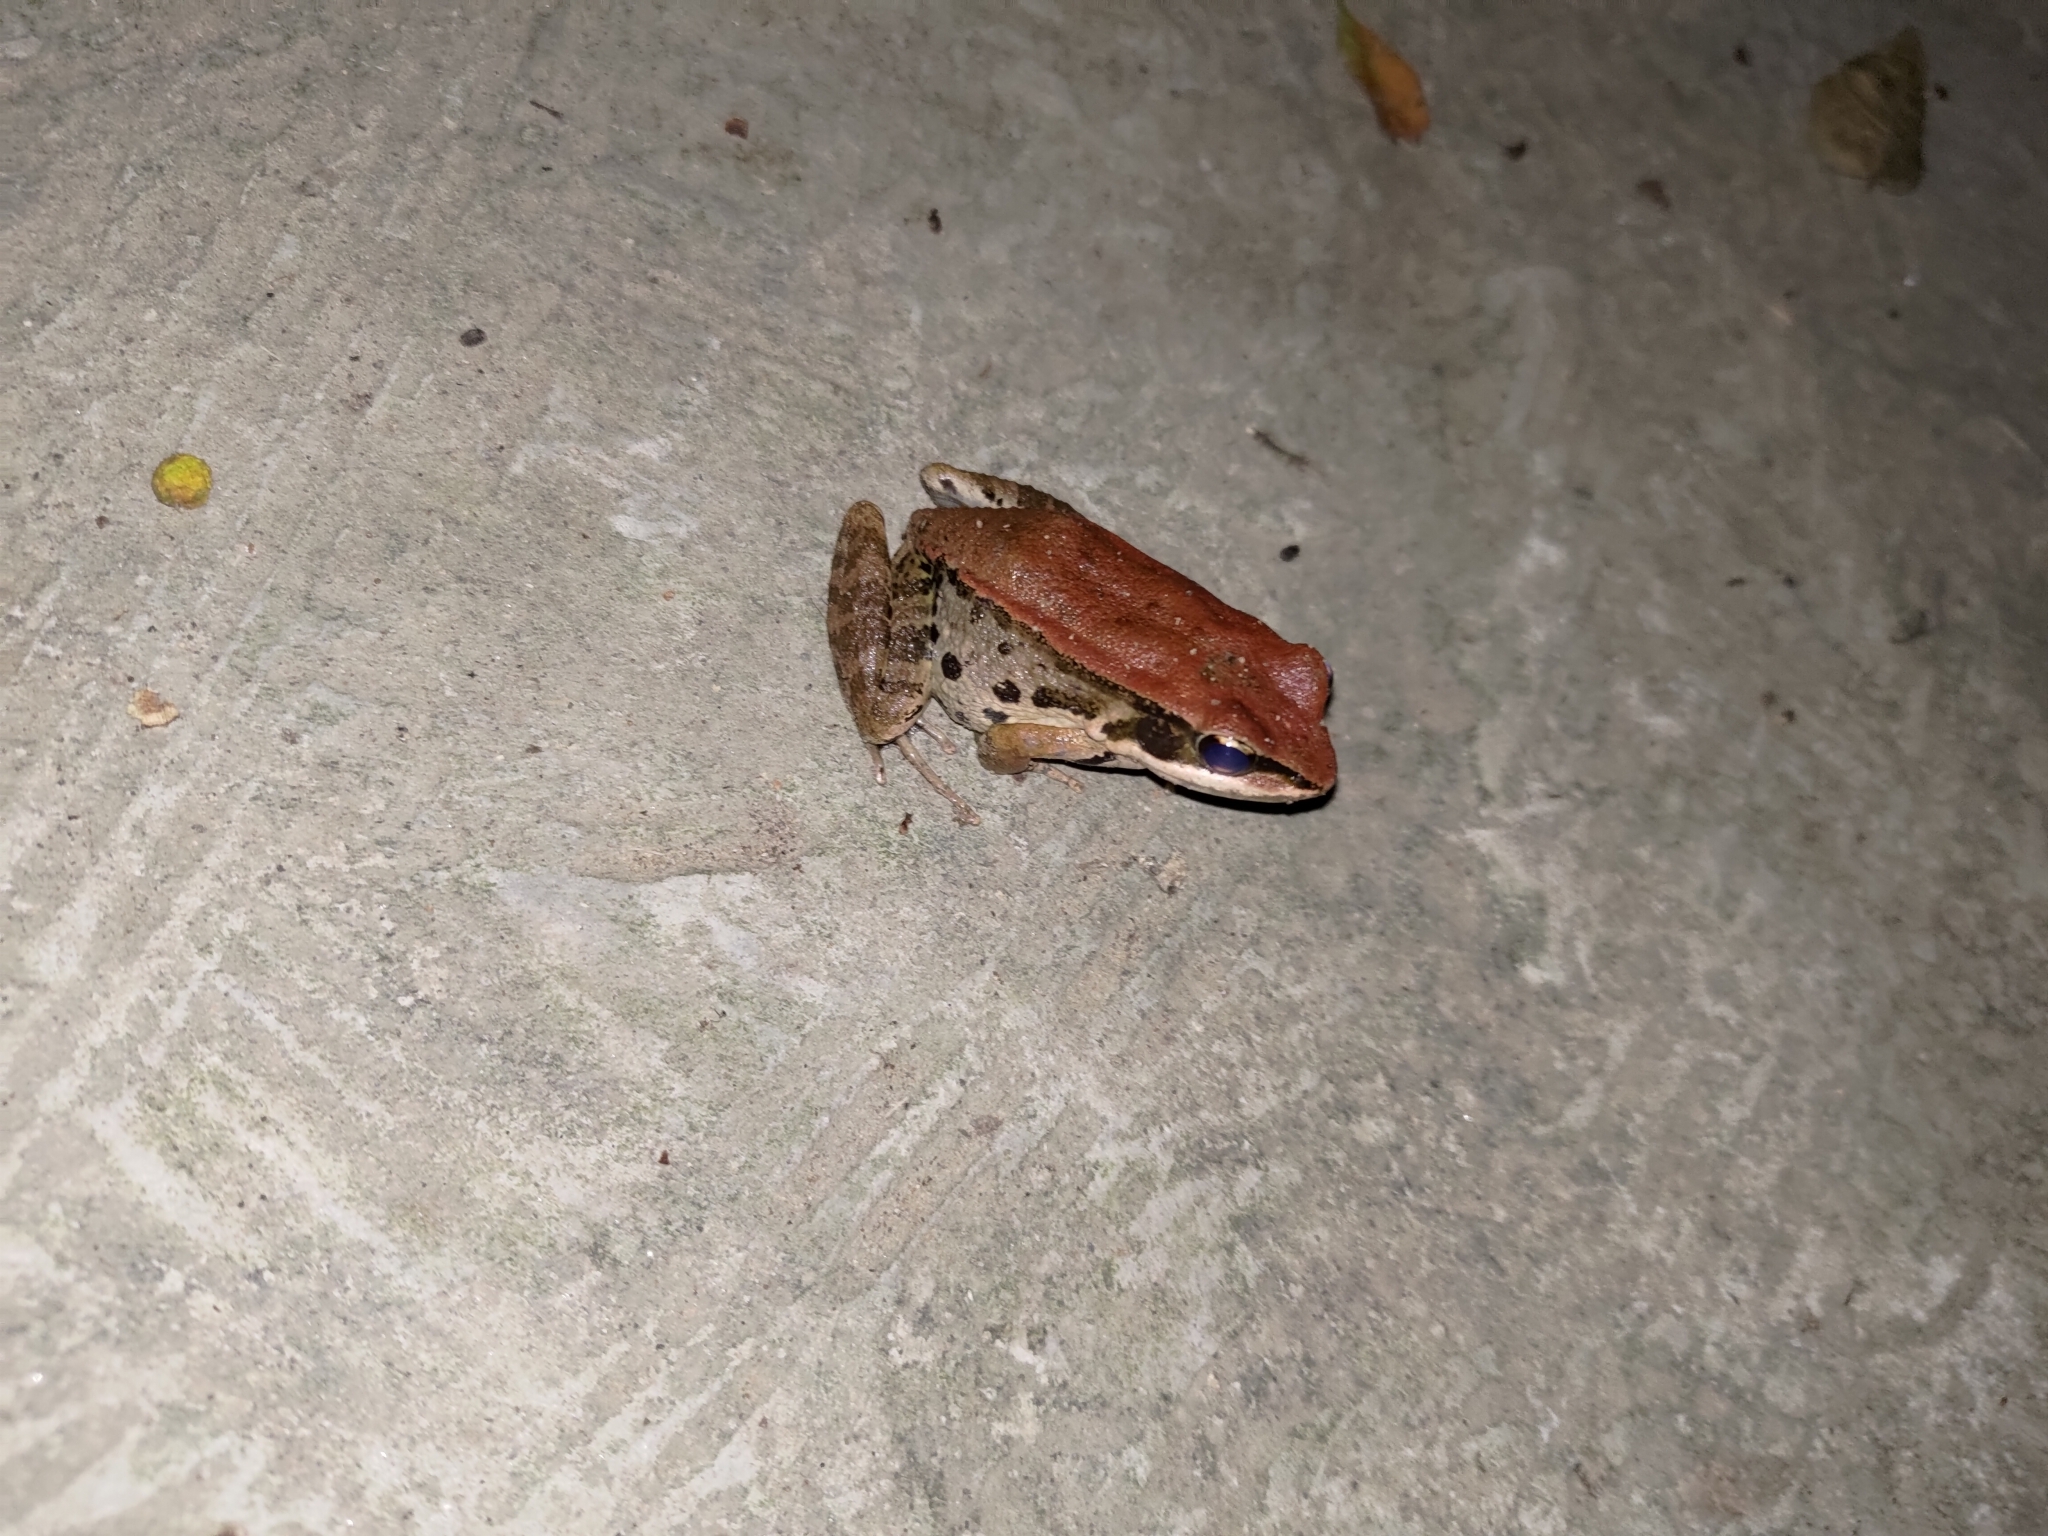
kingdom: Animalia
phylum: Chordata
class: Amphibia
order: Anura
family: Ranidae
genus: Hylarana
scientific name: Hylarana latouchii
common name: Broad-folded frog
